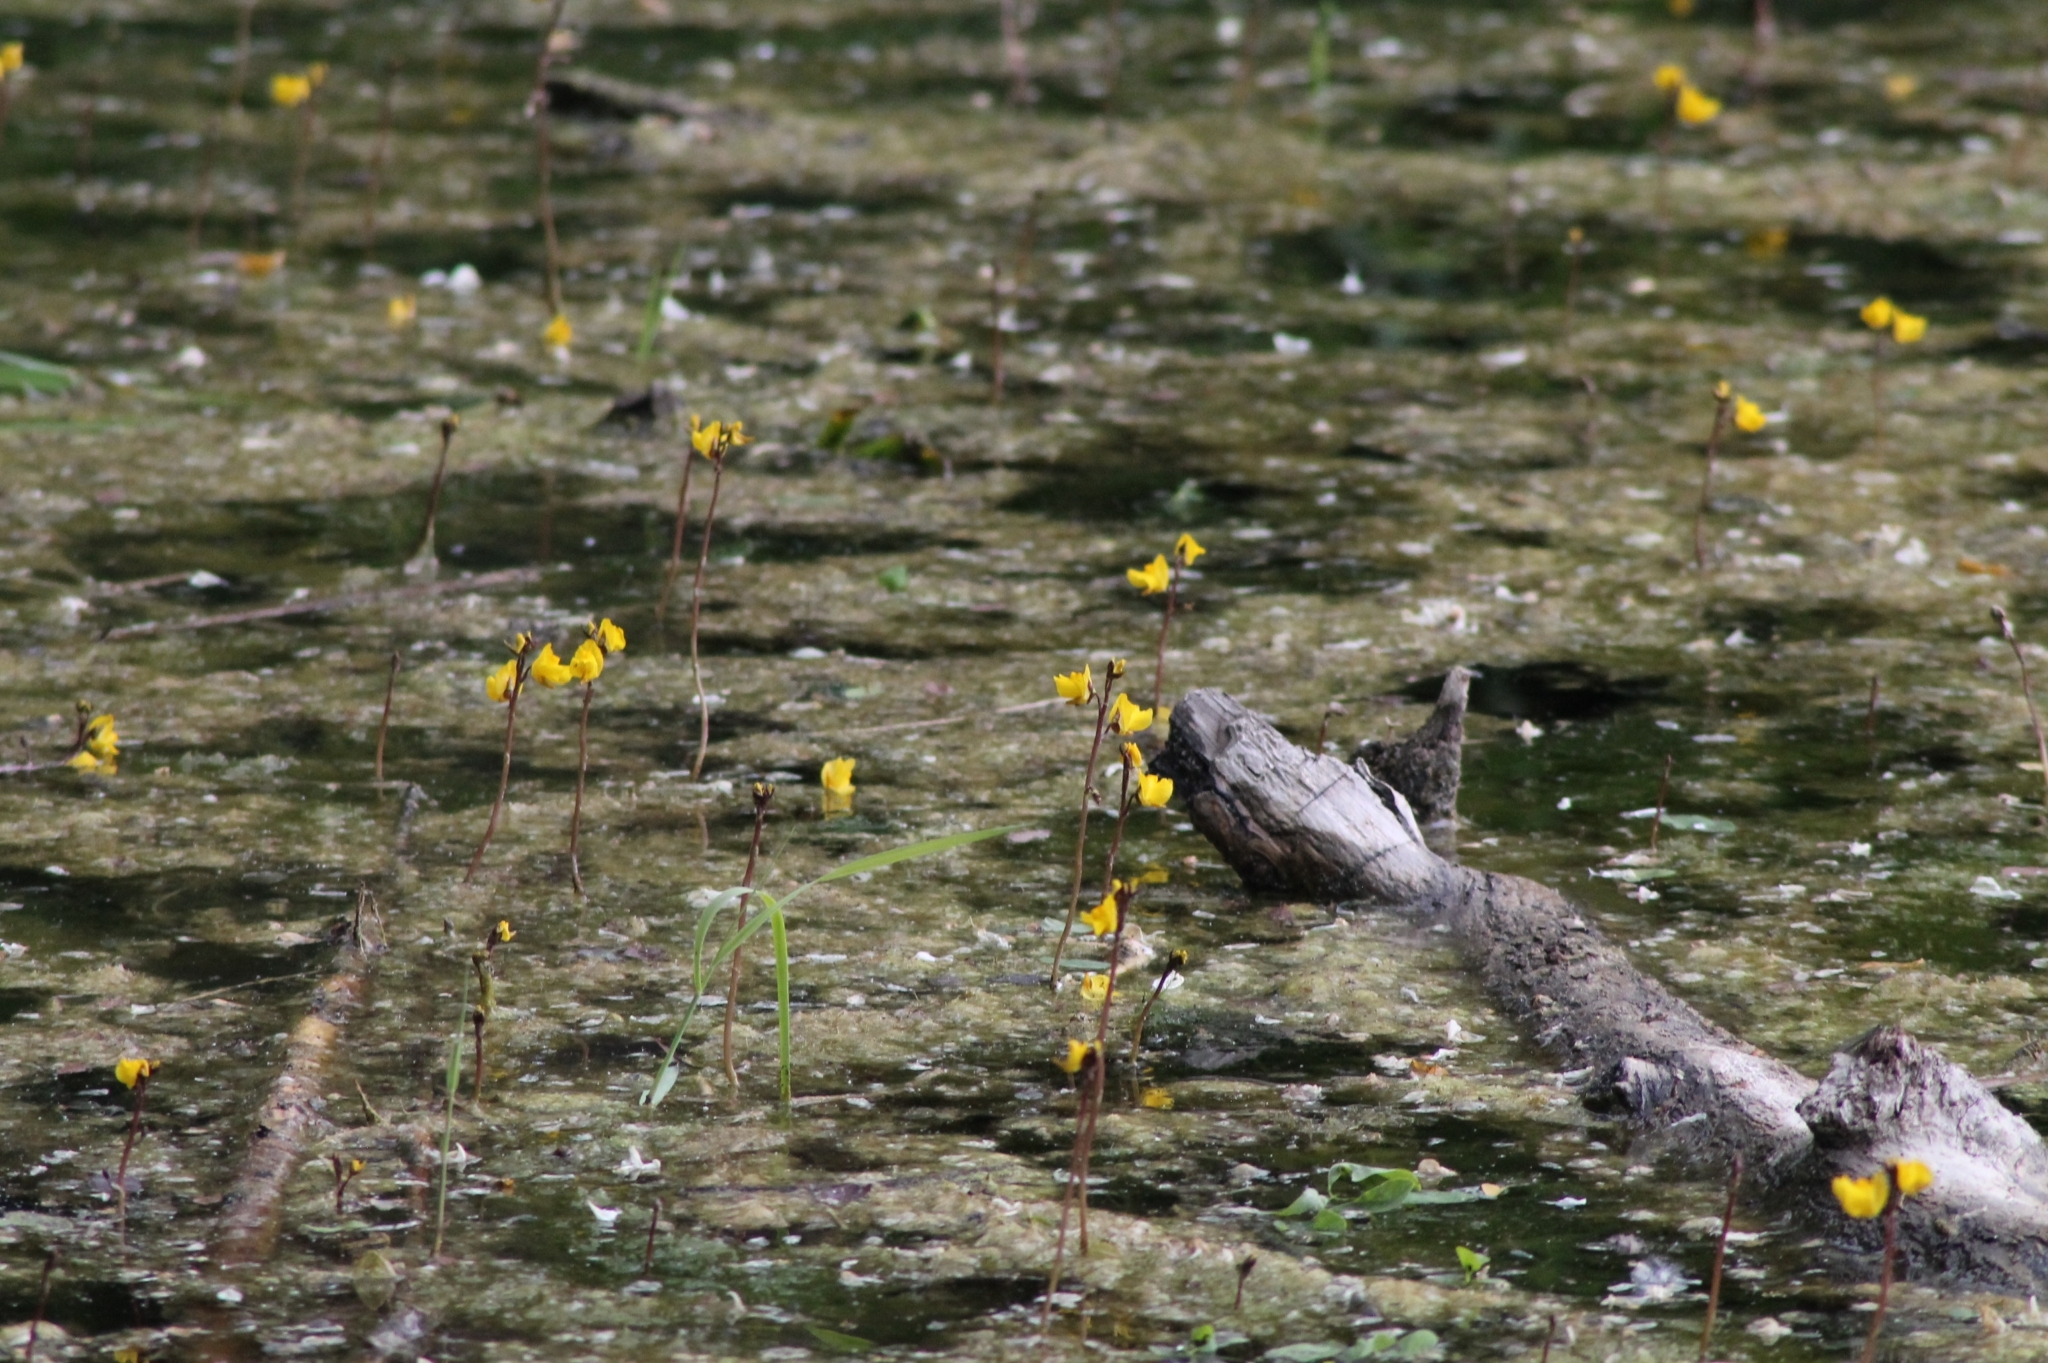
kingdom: Plantae
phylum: Tracheophyta
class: Magnoliopsida
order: Lamiales
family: Lentibulariaceae
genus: Utricularia
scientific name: Utricularia vulgaris
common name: Greater bladderwort
